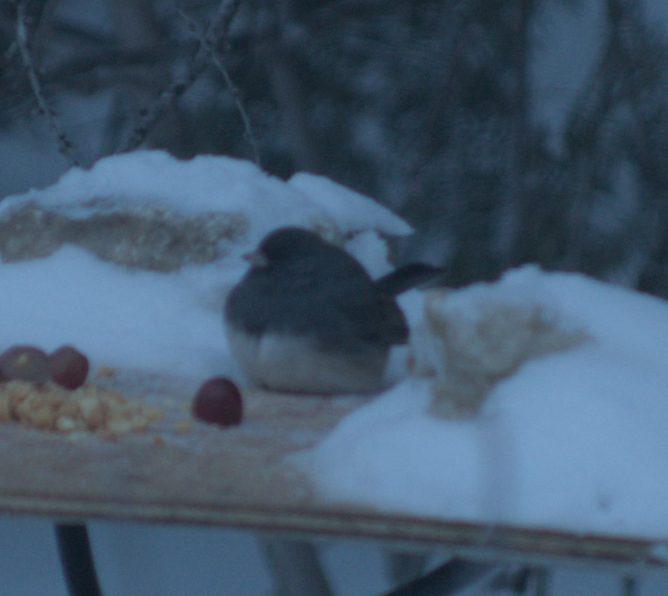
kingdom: Animalia
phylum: Chordata
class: Aves
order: Passeriformes
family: Passerellidae
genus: Junco
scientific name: Junco hyemalis
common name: Dark-eyed junco
